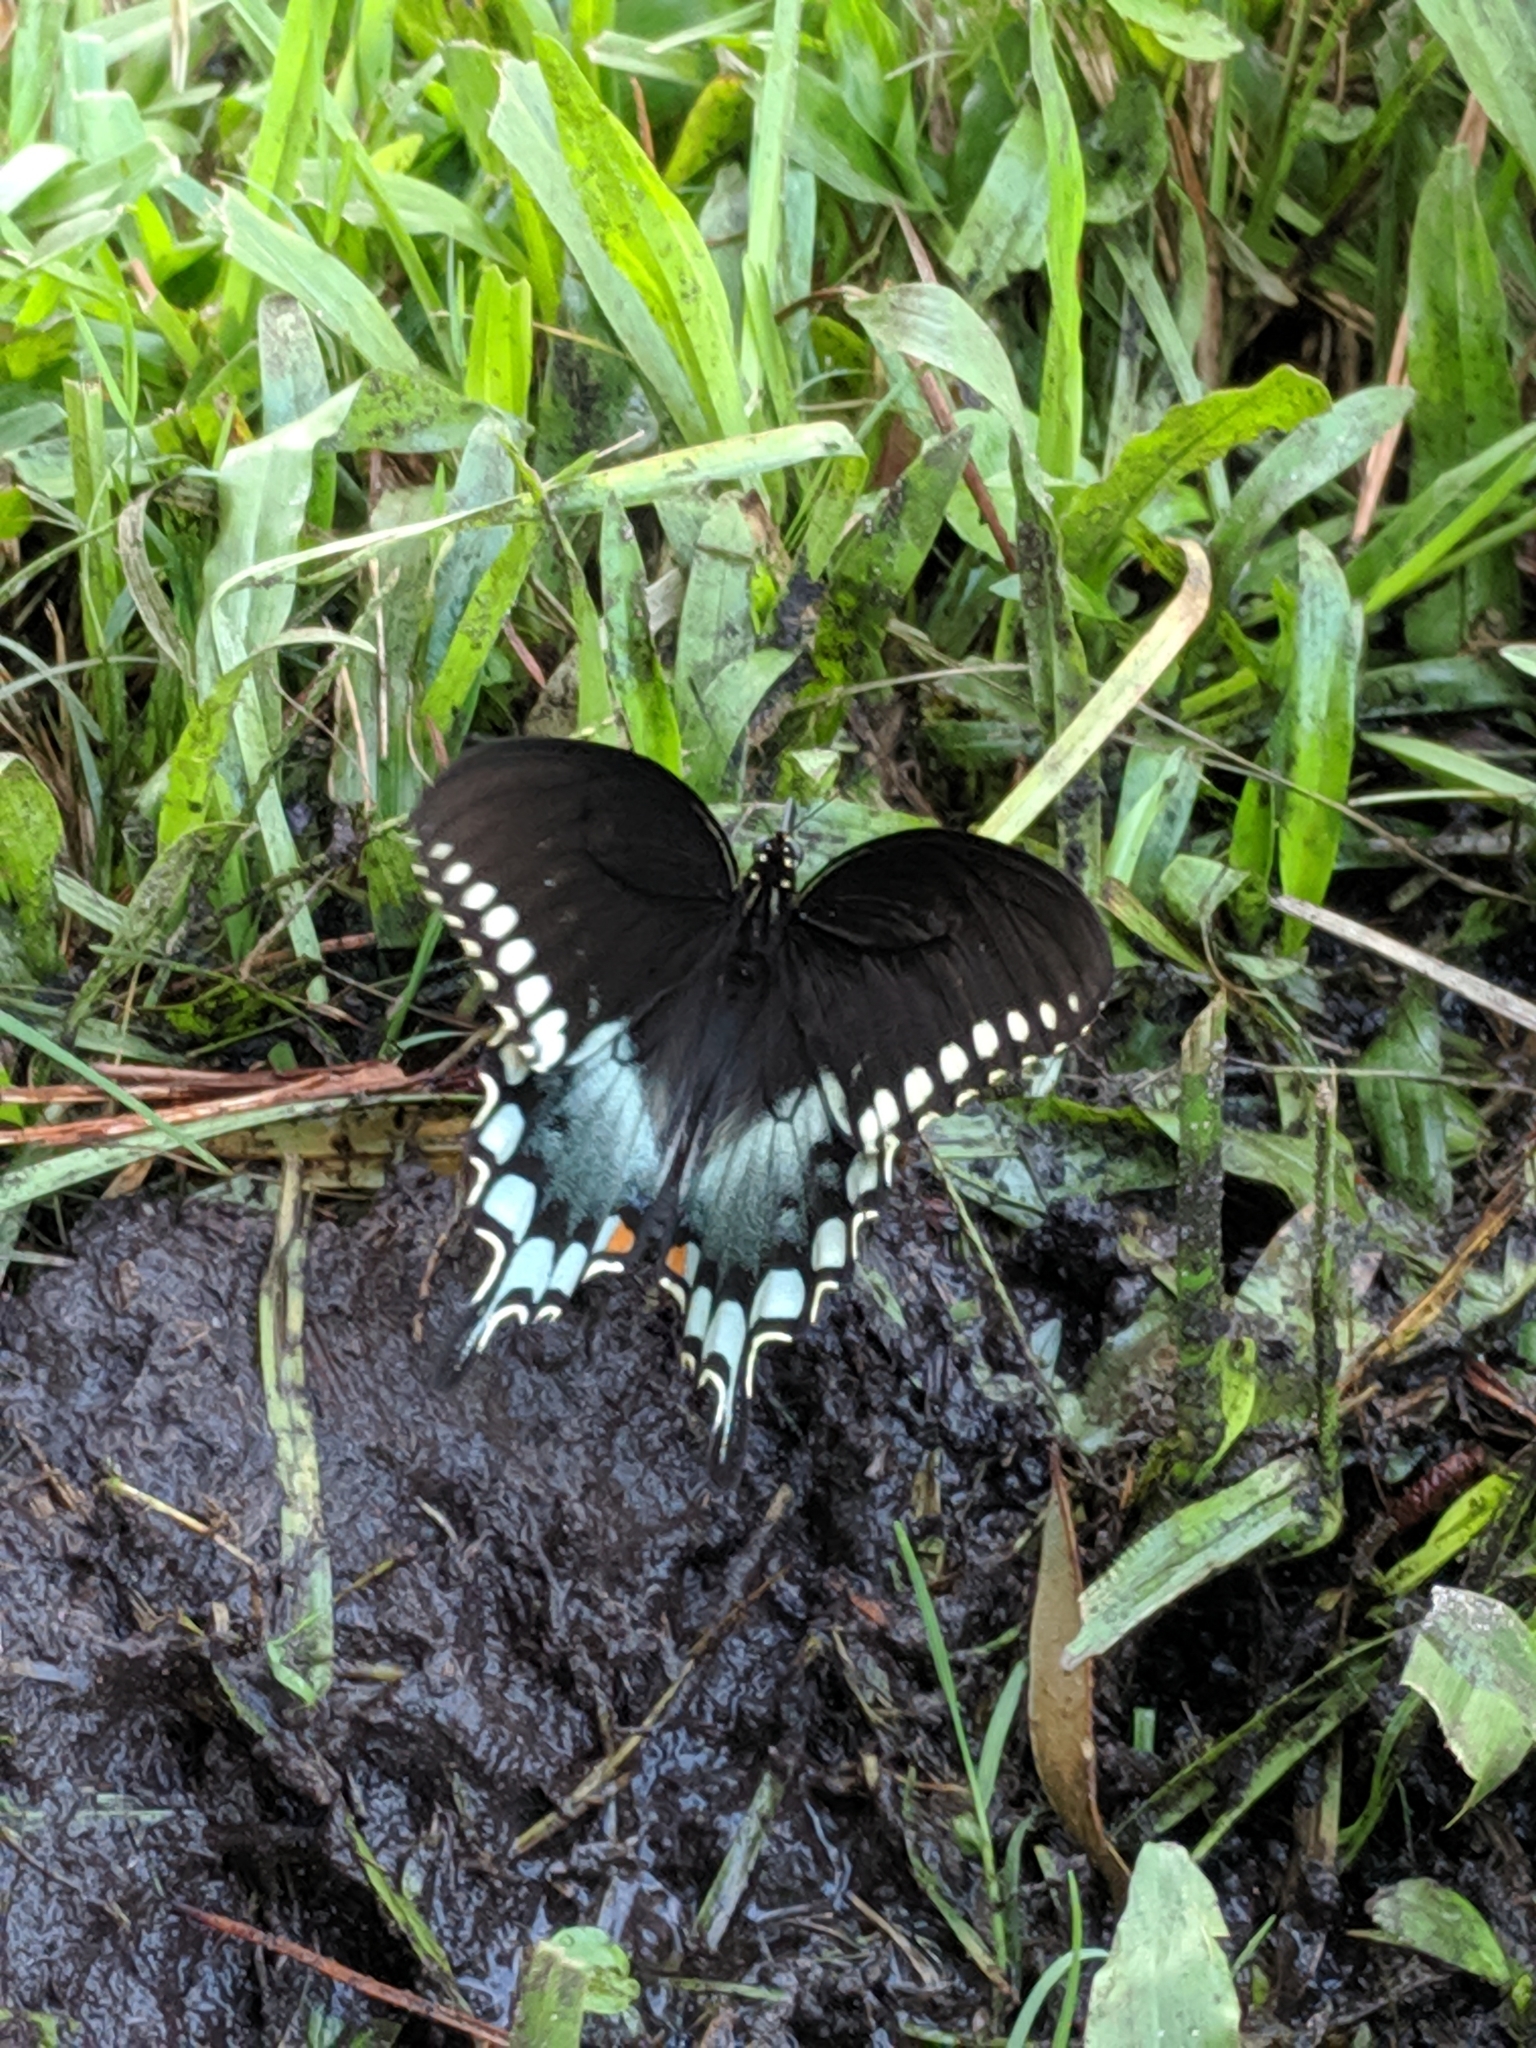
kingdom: Animalia
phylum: Arthropoda
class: Insecta
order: Lepidoptera
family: Papilionidae
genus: Papilio
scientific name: Papilio troilus
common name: Spicebush swallowtail
